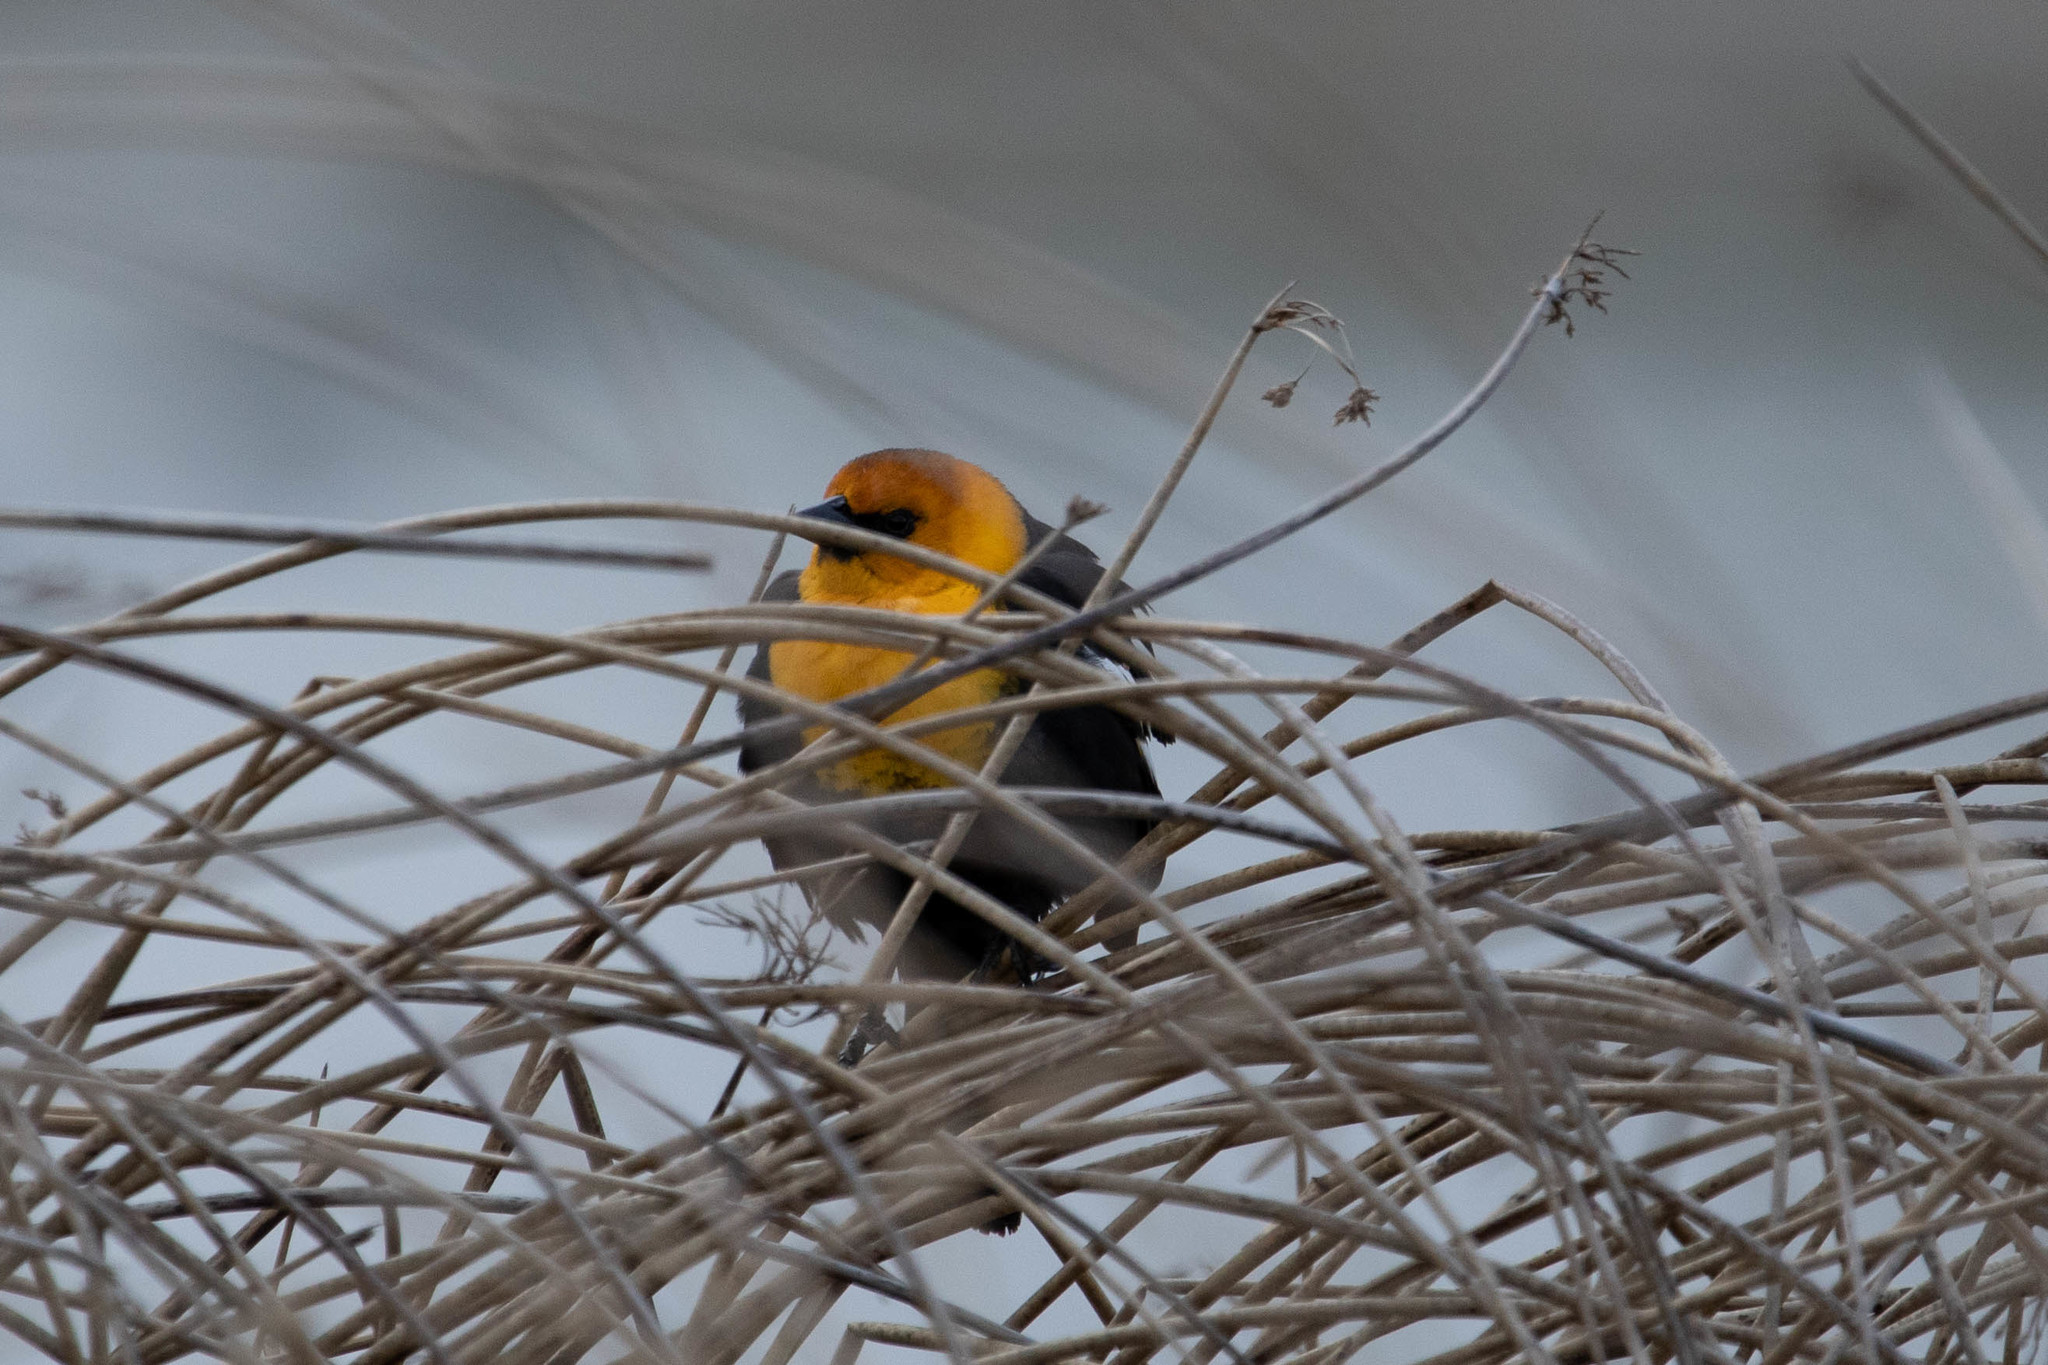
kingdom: Animalia
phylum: Chordata
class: Aves
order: Passeriformes
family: Icteridae
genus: Xanthocephalus
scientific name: Xanthocephalus xanthocephalus
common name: Yellow-headed blackbird
